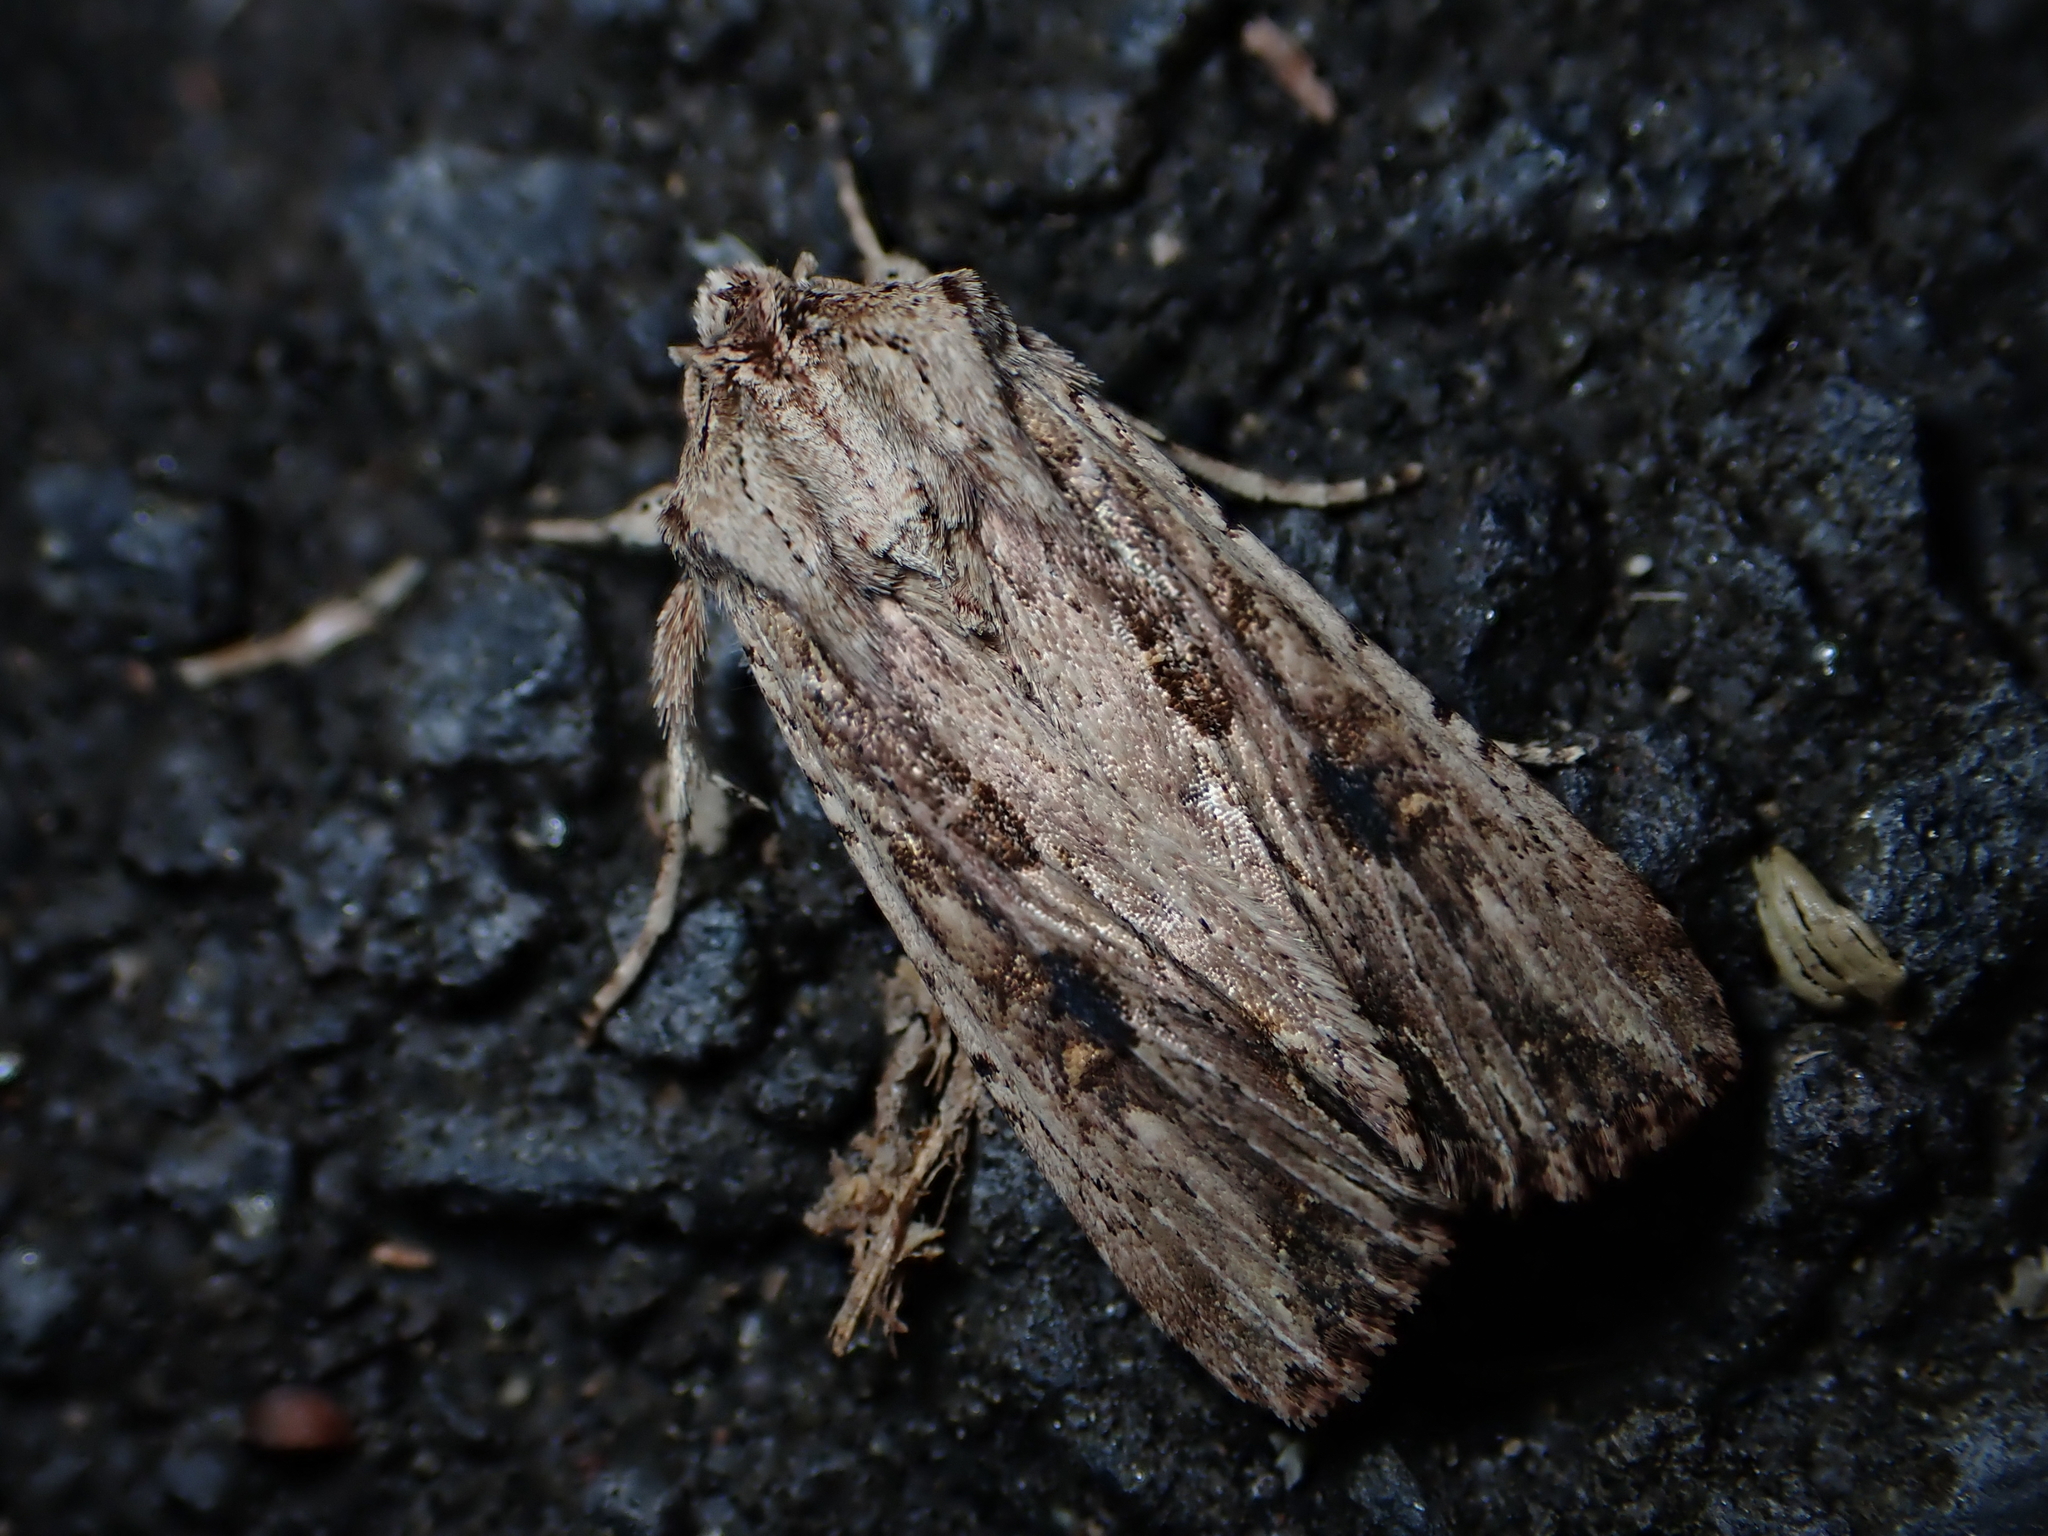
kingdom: Animalia
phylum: Arthropoda
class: Insecta
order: Lepidoptera
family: Noctuidae
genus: Ichneutica
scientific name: Ichneutica lignana
